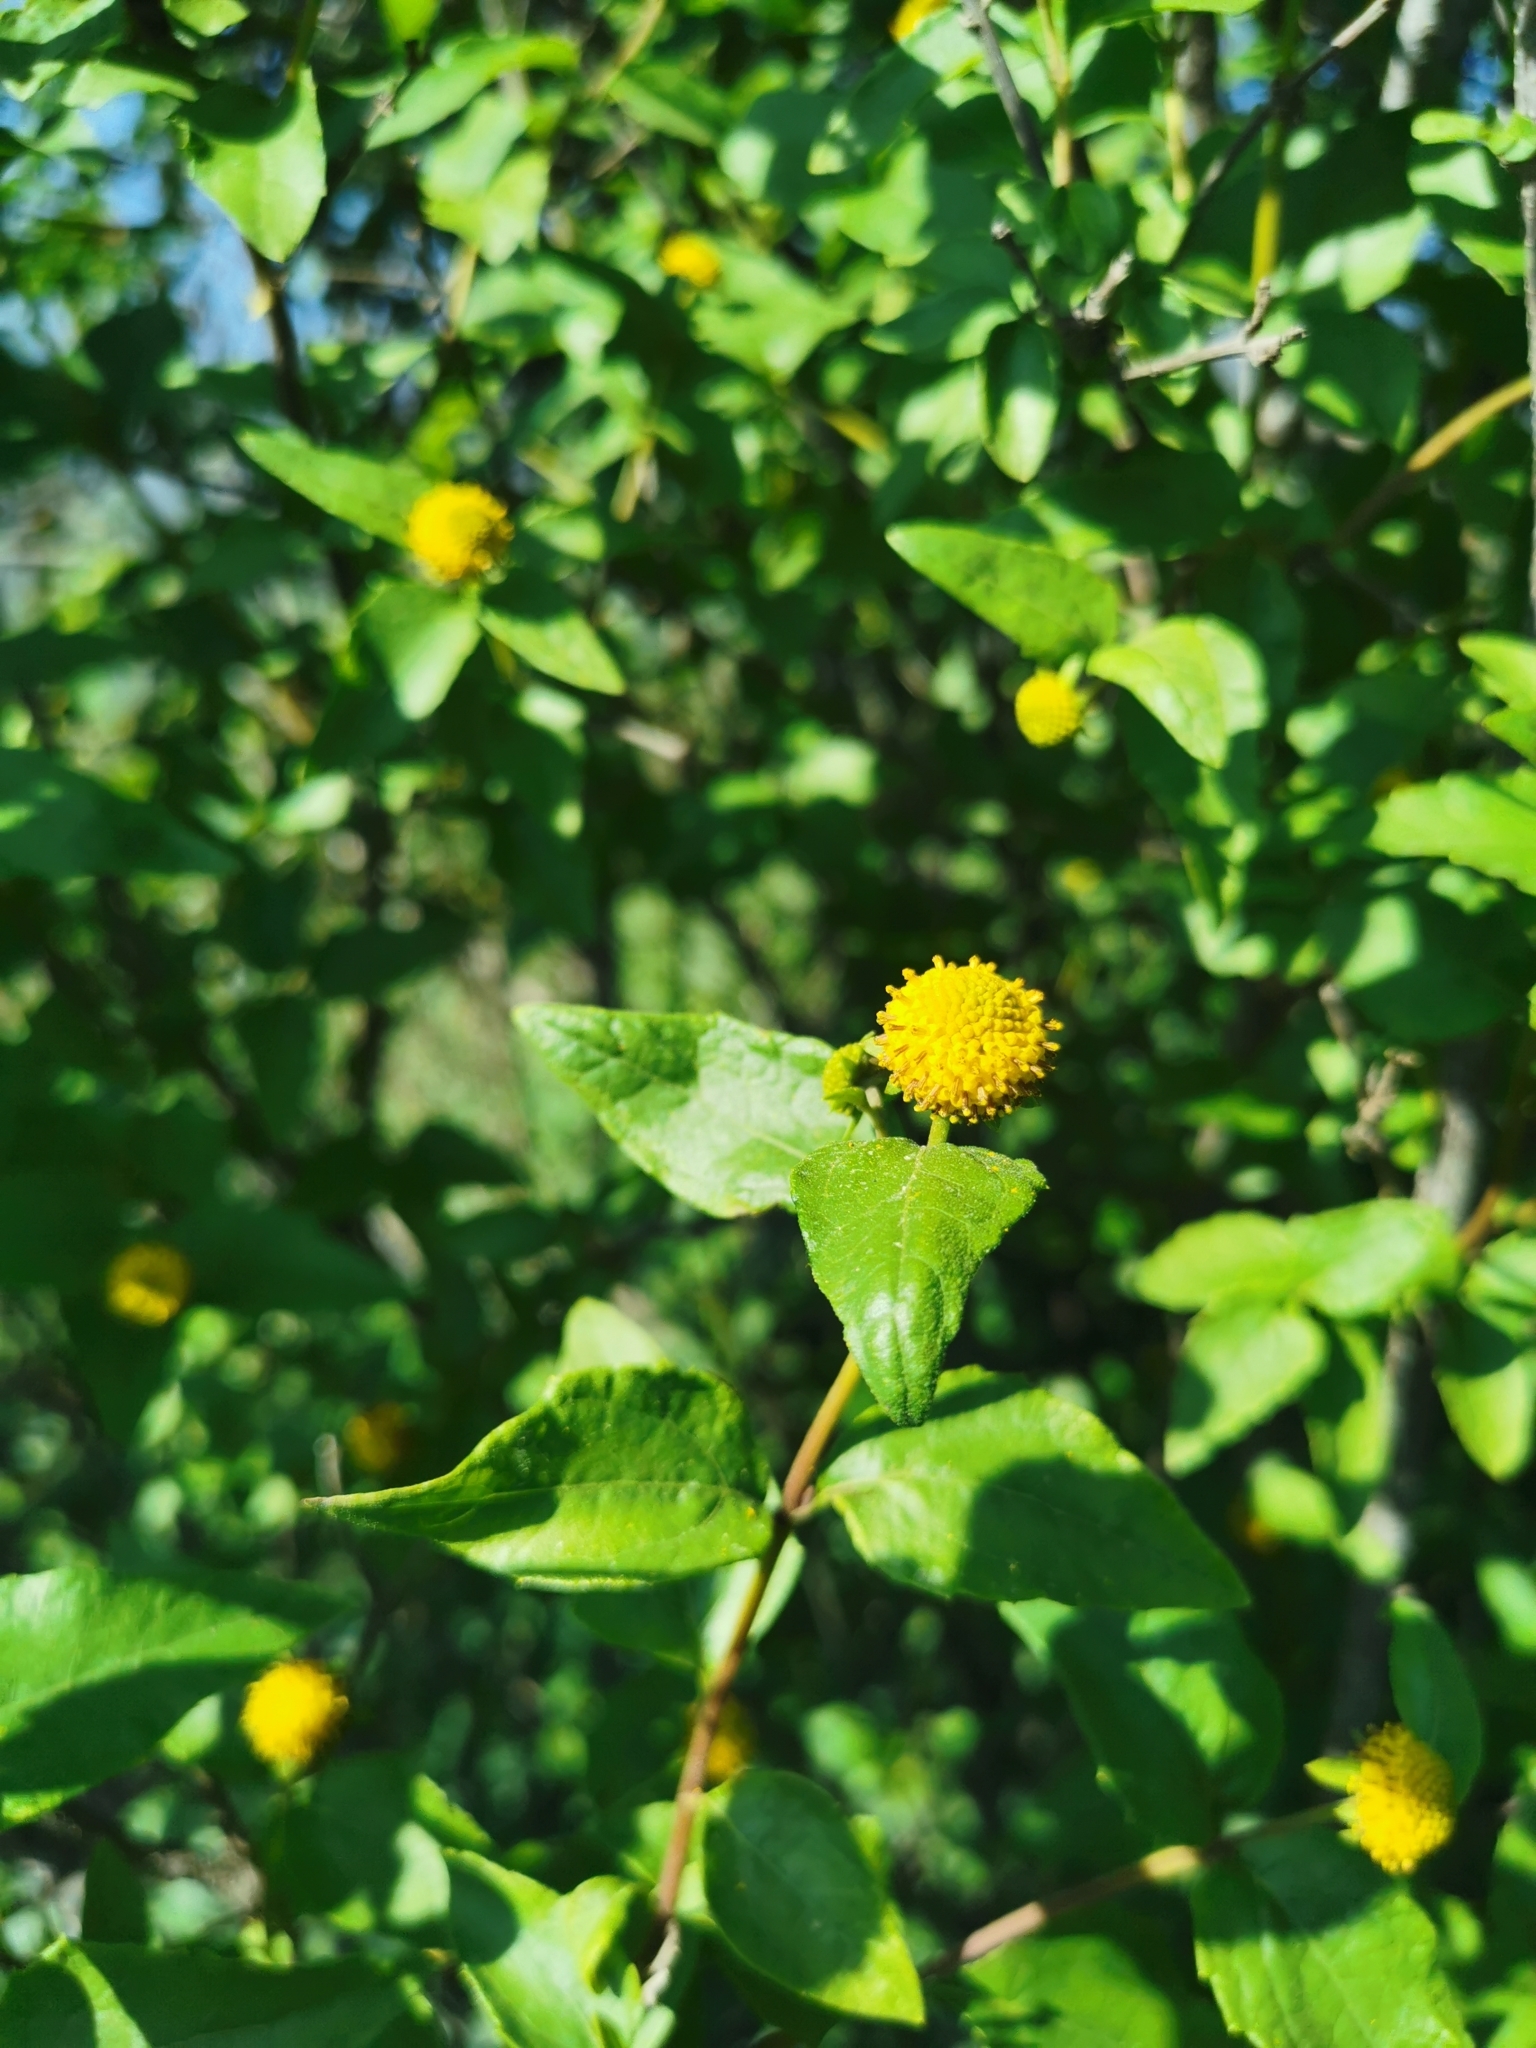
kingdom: Plantae
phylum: Tracheophyta
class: Magnoliopsida
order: Asterales
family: Asteraceae
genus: Podanthus
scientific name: Podanthus mitiqui
